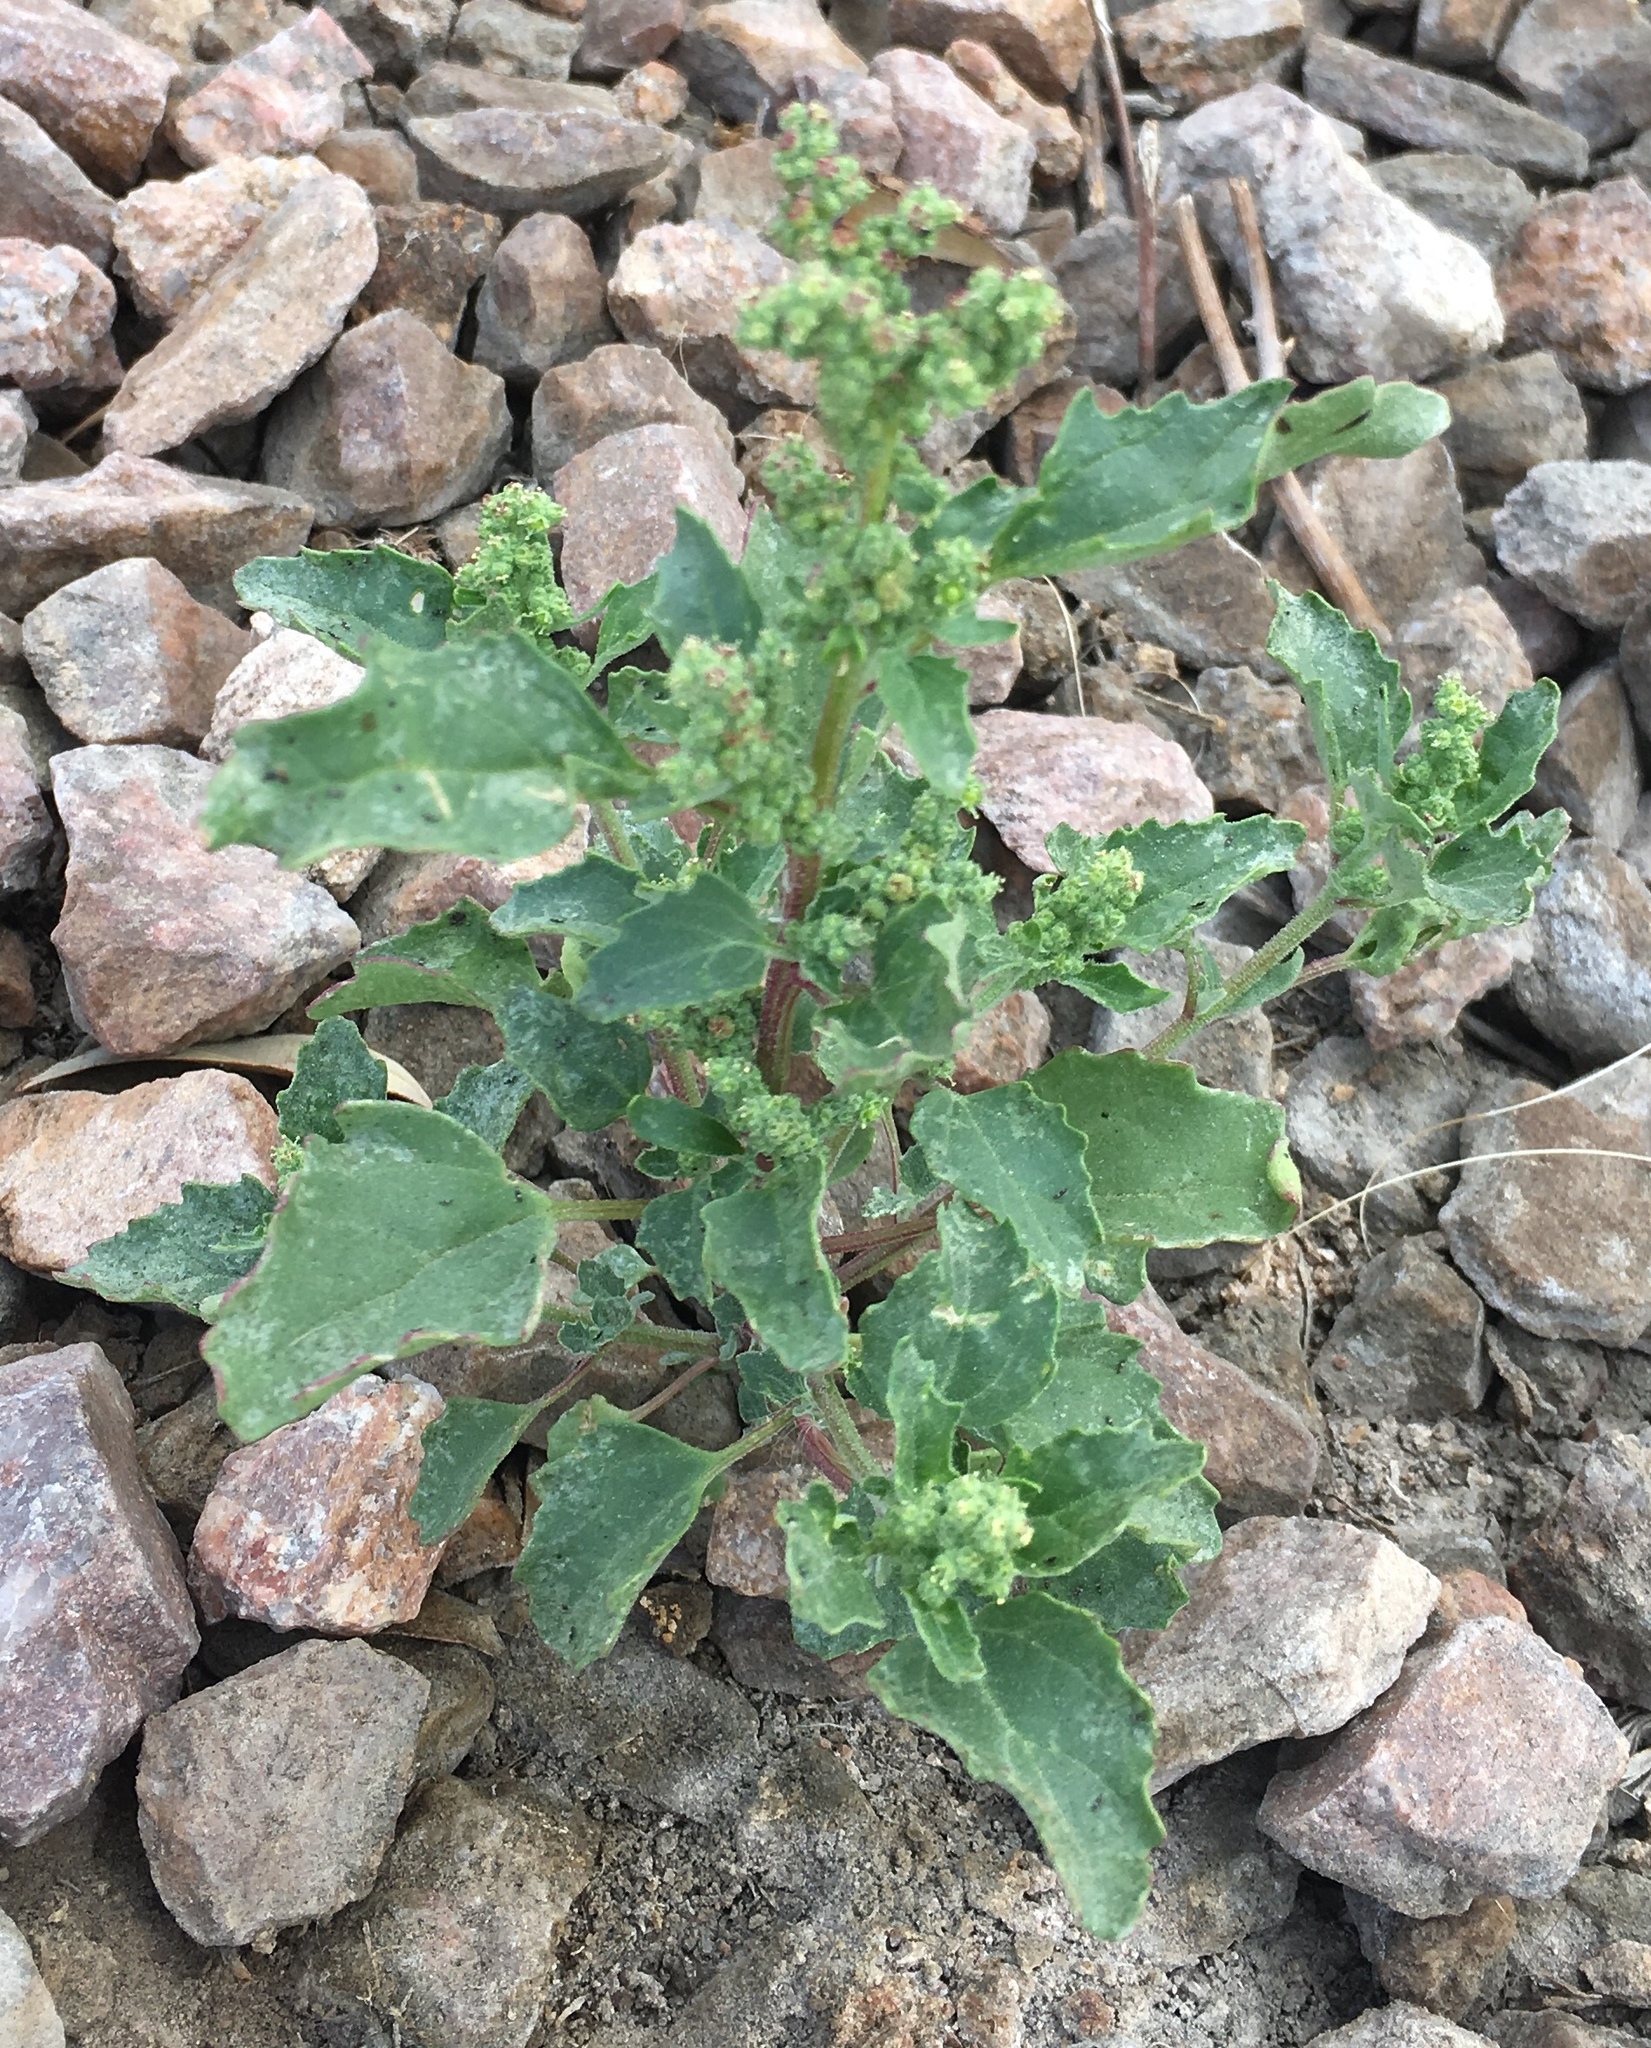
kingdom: Plantae
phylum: Tracheophyta
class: Magnoliopsida
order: Caryophyllales
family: Amaranthaceae
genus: Chenopodiastrum
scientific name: Chenopodiastrum murale
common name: Sowbane
